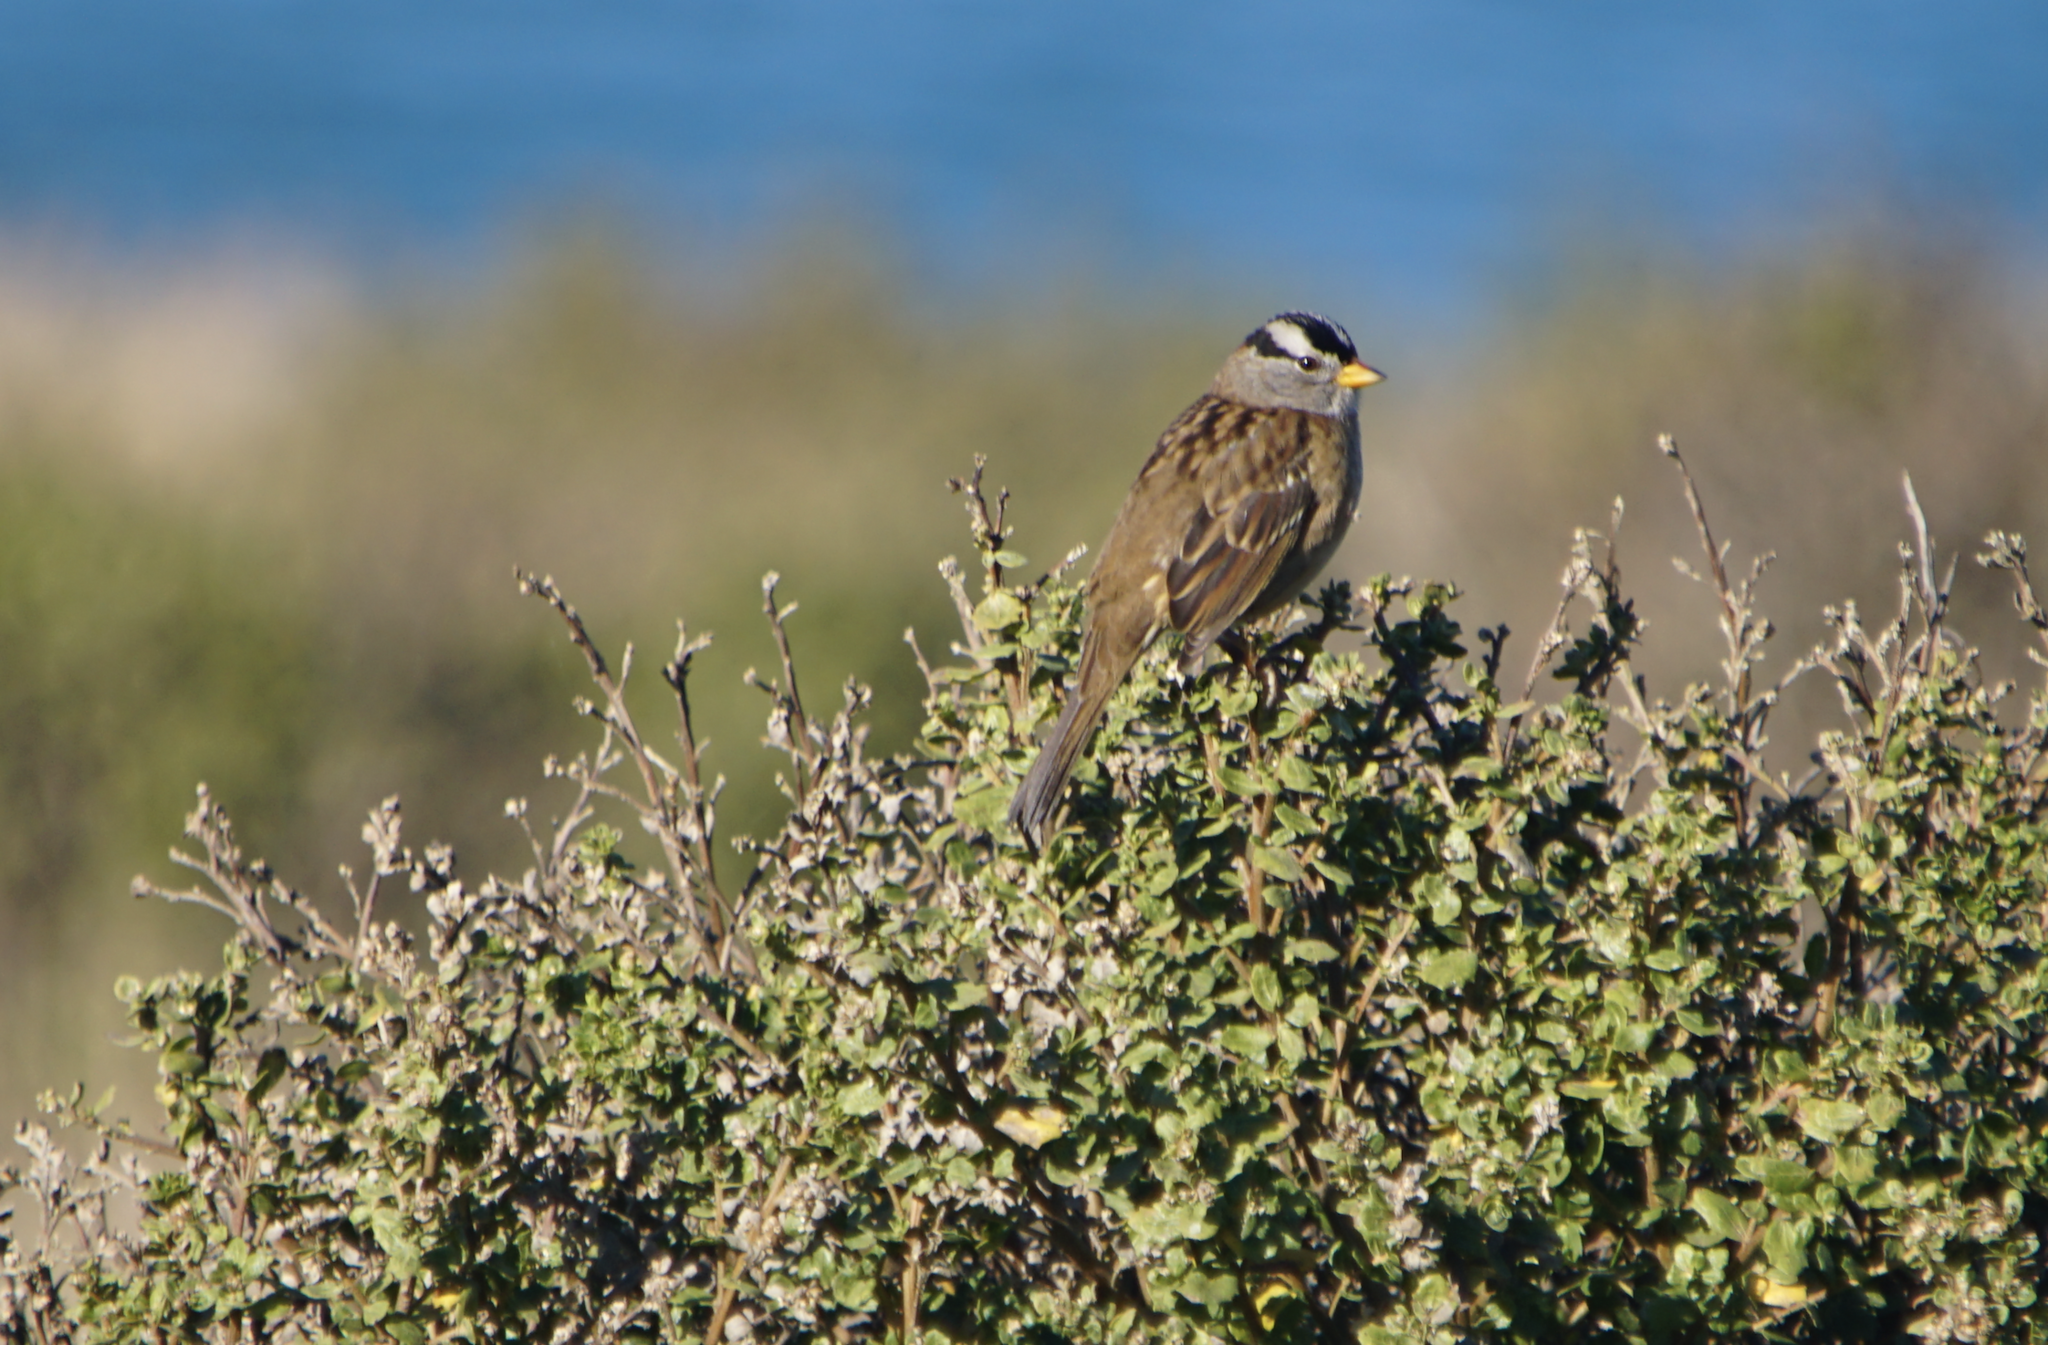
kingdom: Animalia
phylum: Chordata
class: Aves
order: Passeriformes
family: Passerellidae
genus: Zonotrichia
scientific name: Zonotrichia leucophrys
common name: White-crowned sparrow
